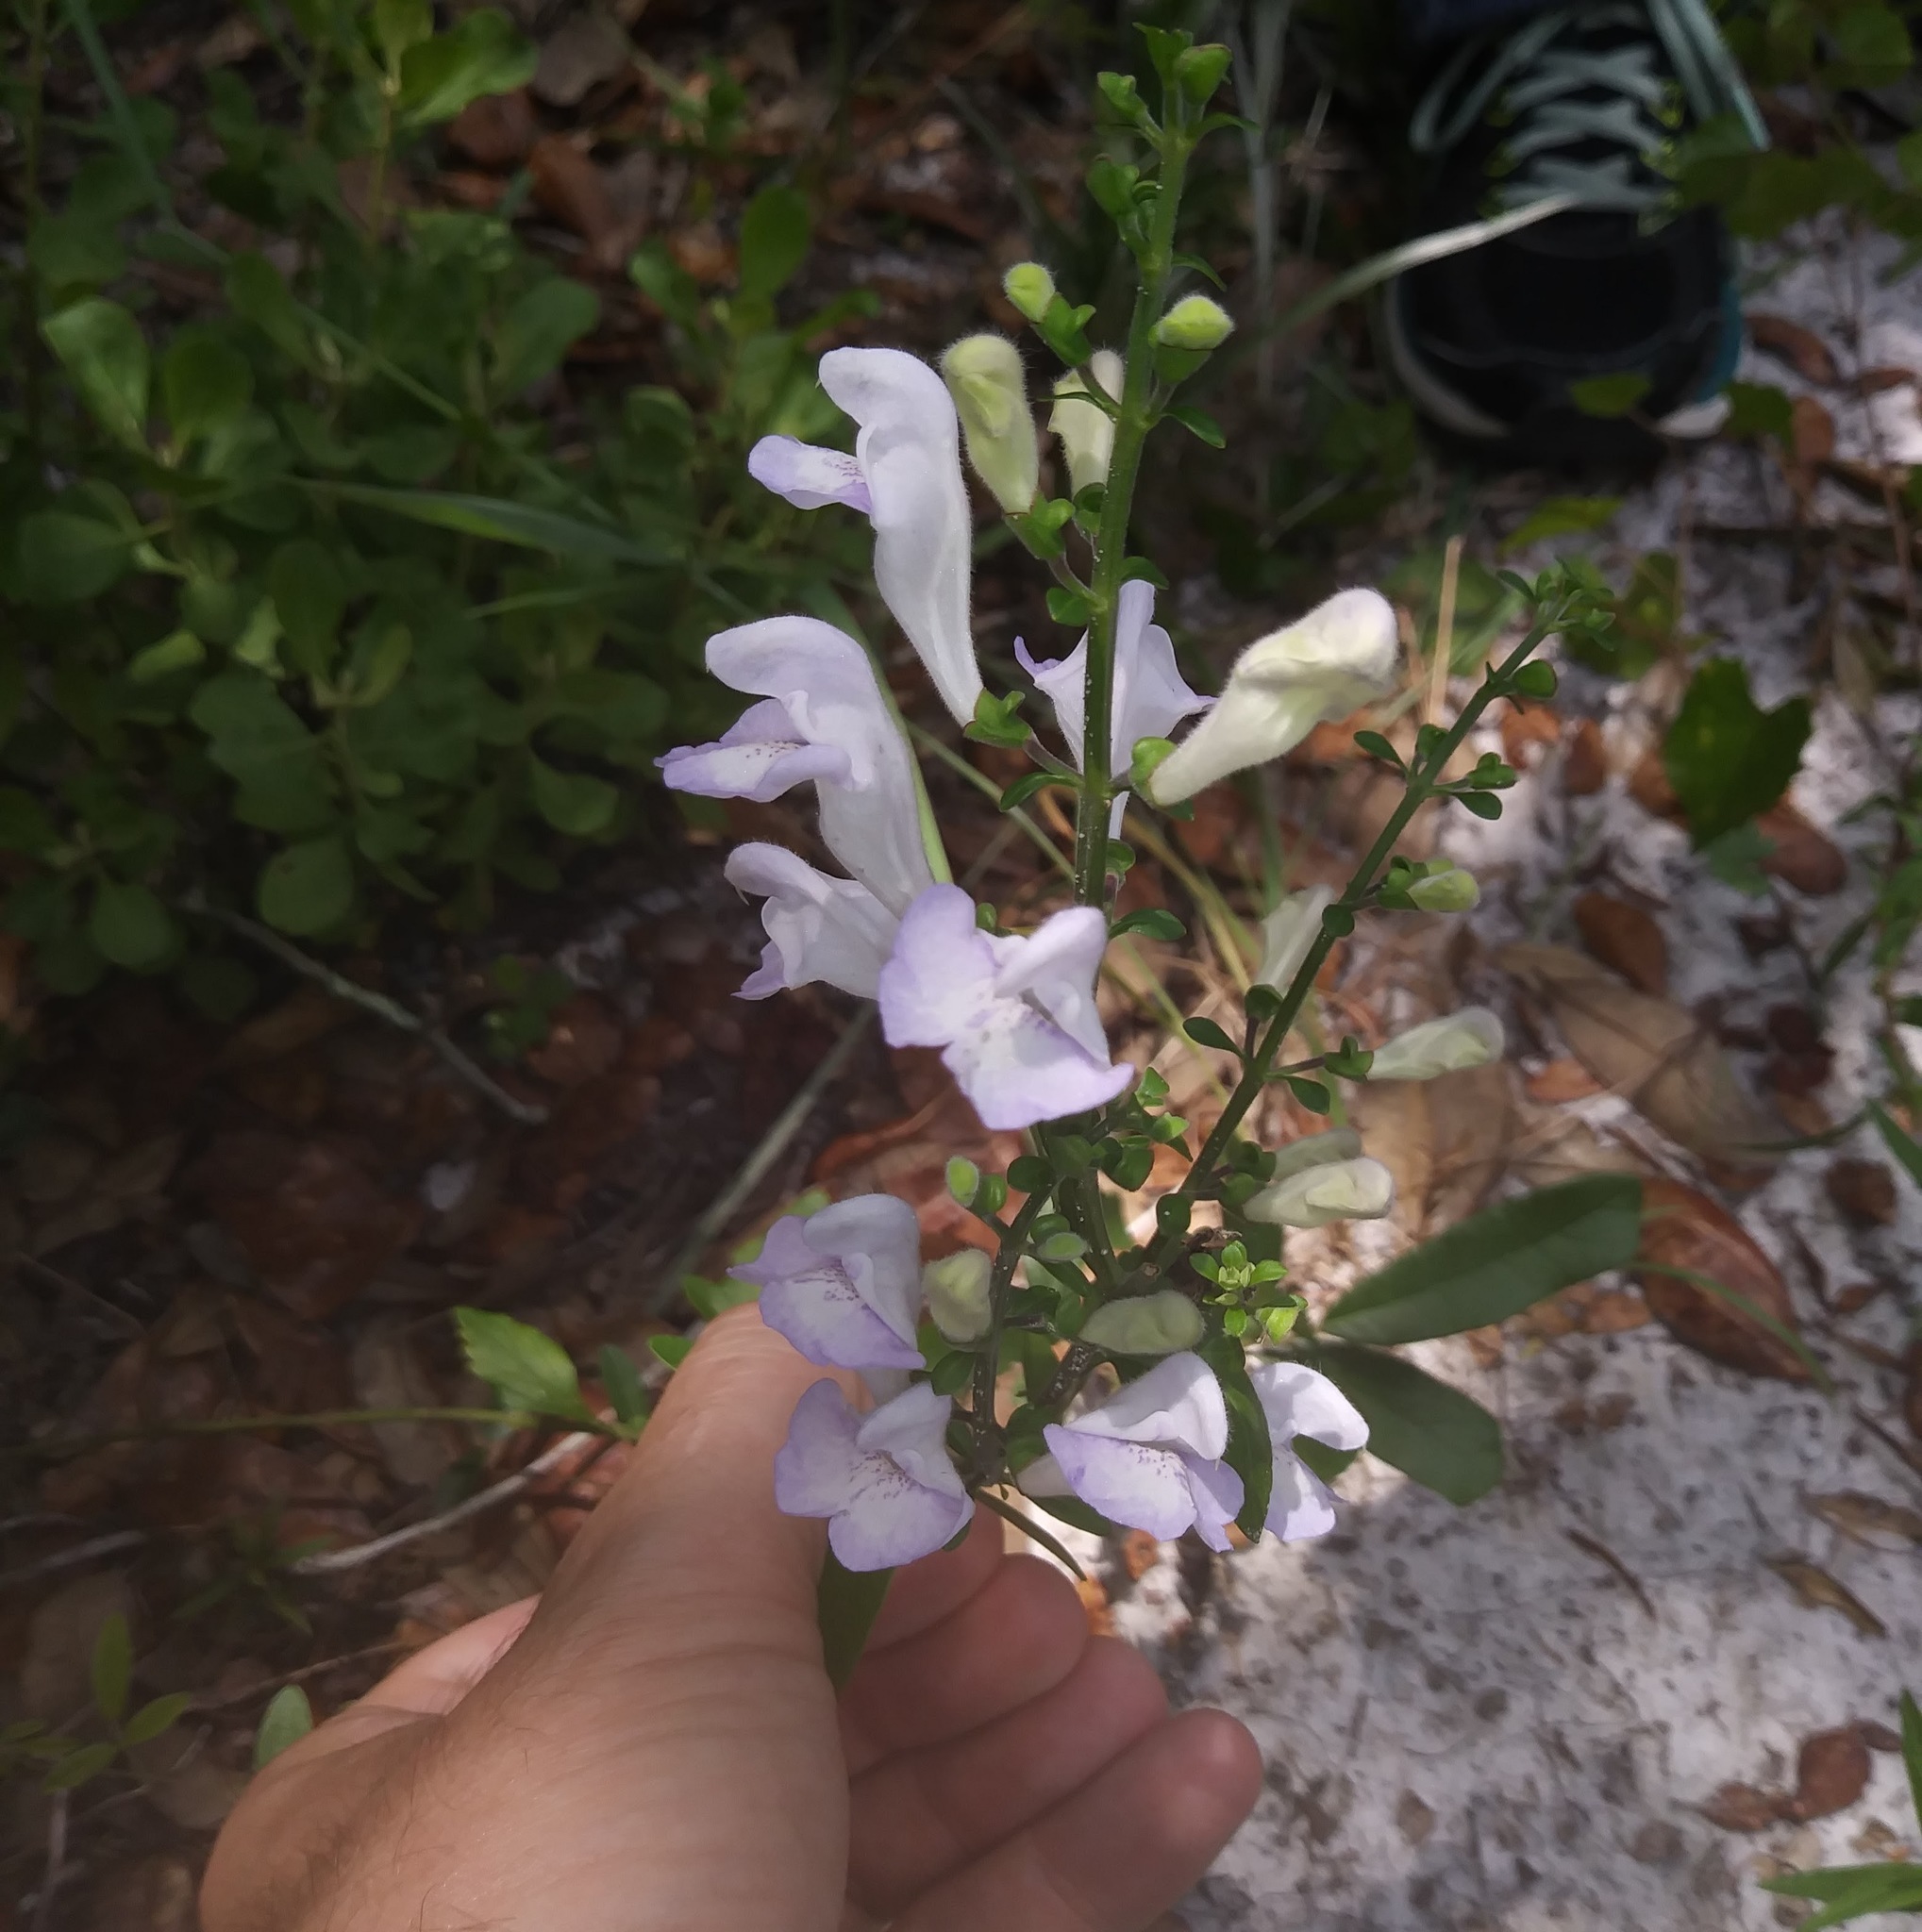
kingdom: Plantae
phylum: Tracheophyta
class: Magnoliopsida
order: Lamiales
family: Lamiaceae
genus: Scutellaria
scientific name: Scutellaria arenicola
